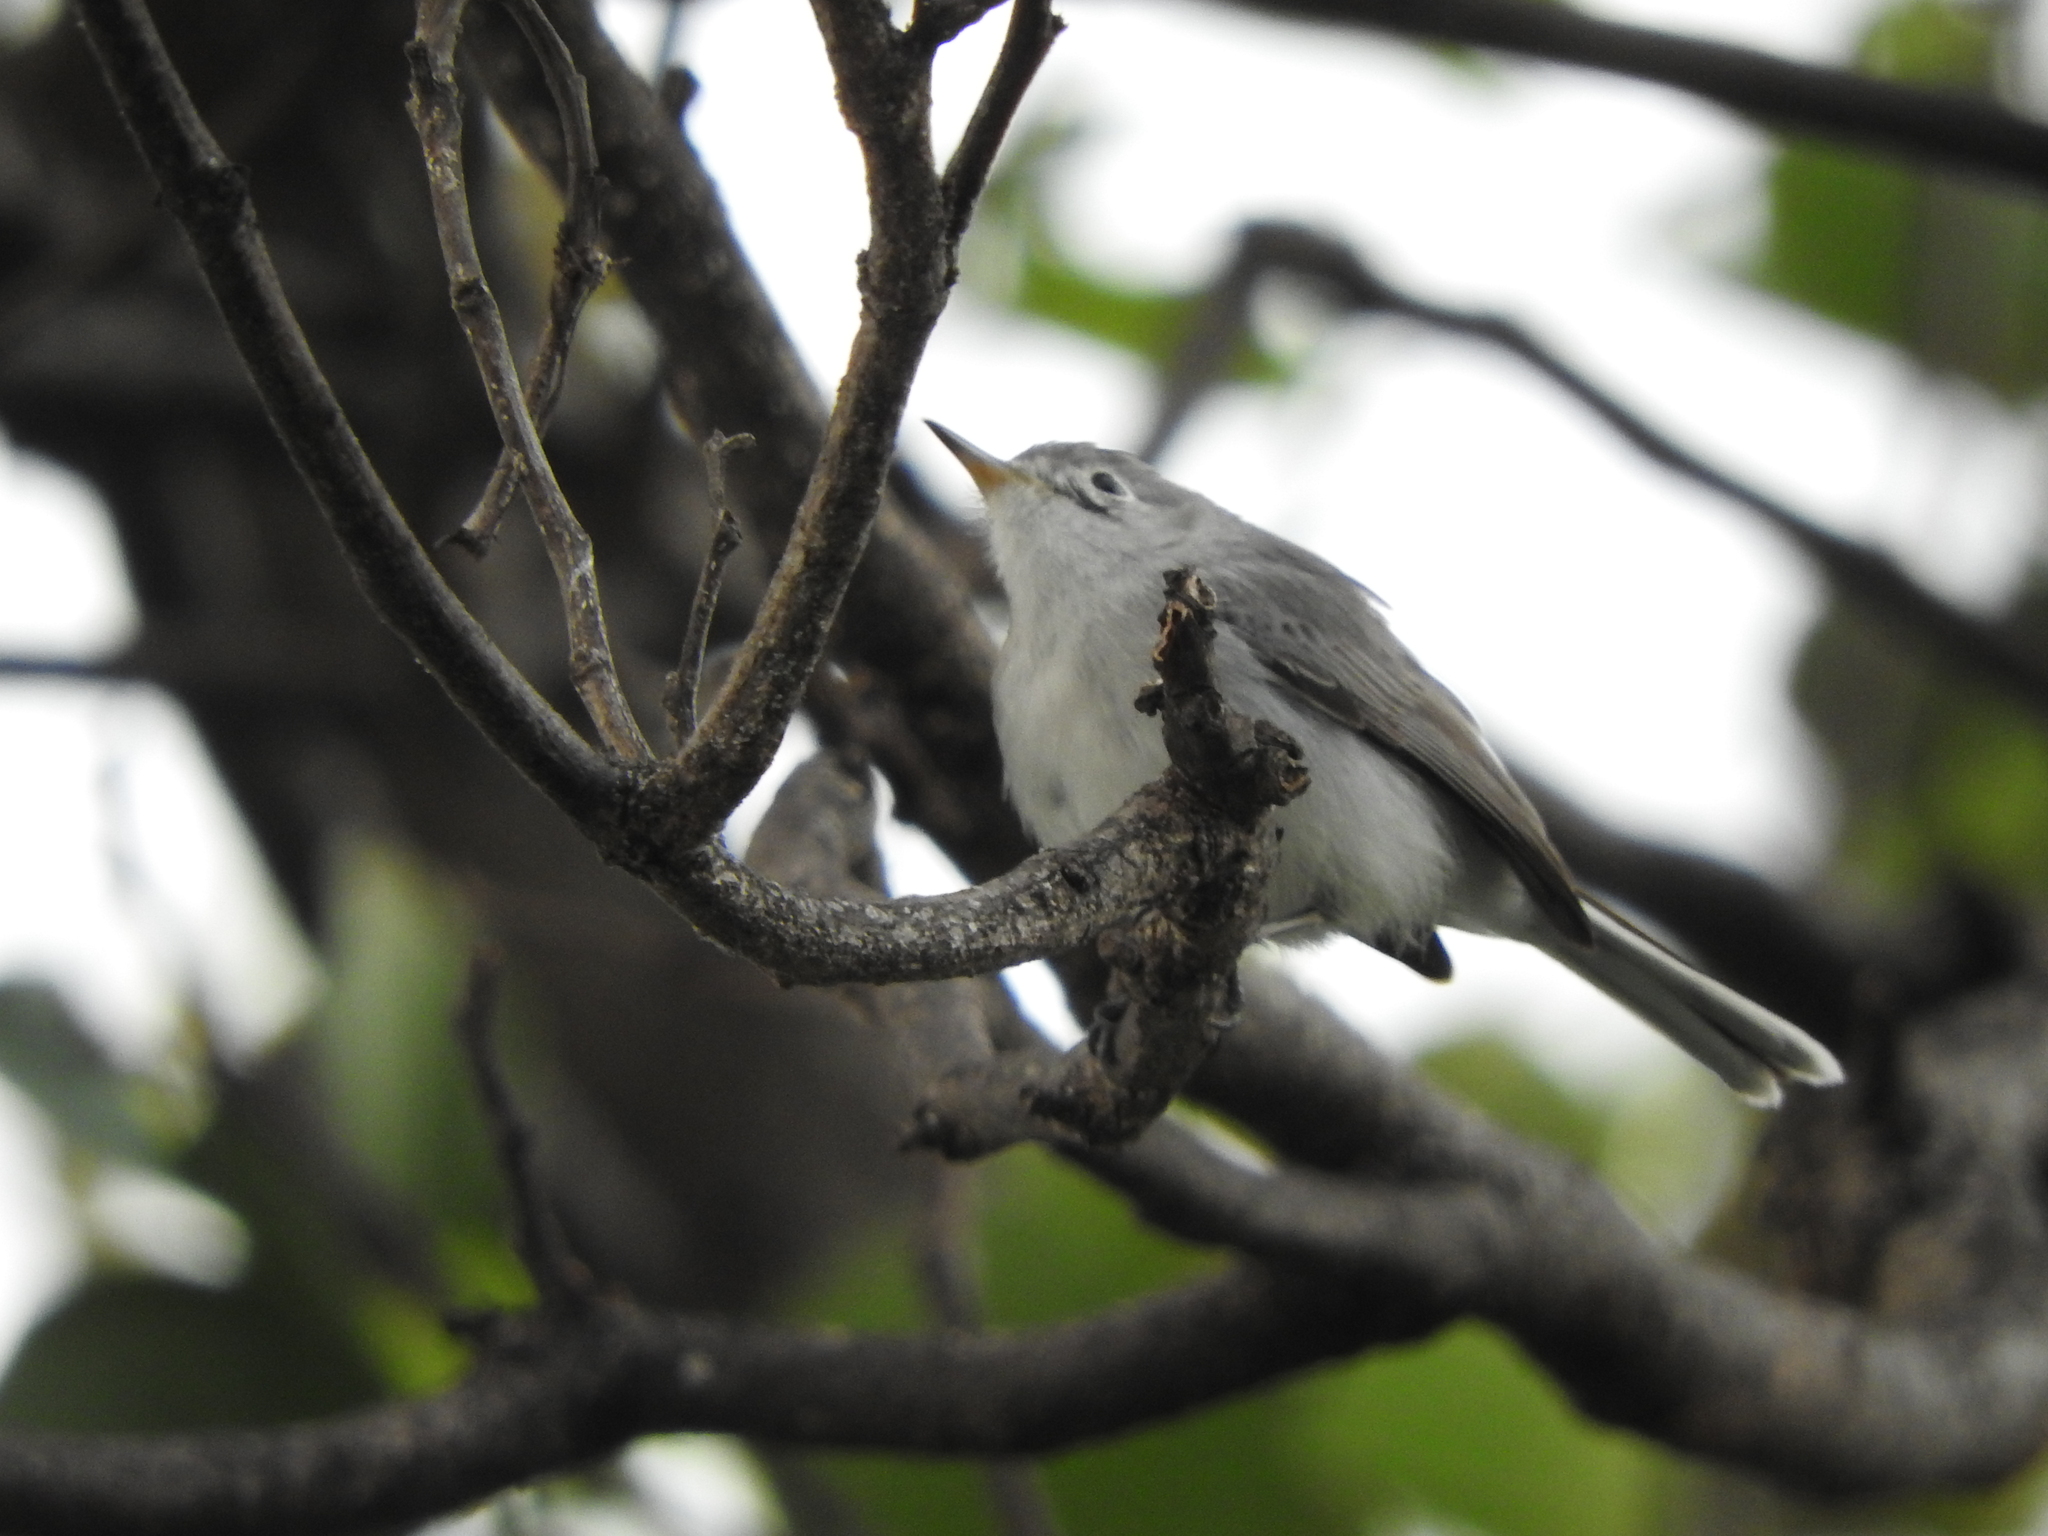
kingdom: Animalia
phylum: Chordata
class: Aves
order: Passeriformes
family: Polioptilidae
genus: Polioptila
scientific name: Polioptila caerulea
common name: Blue-gray gnatcatcher
